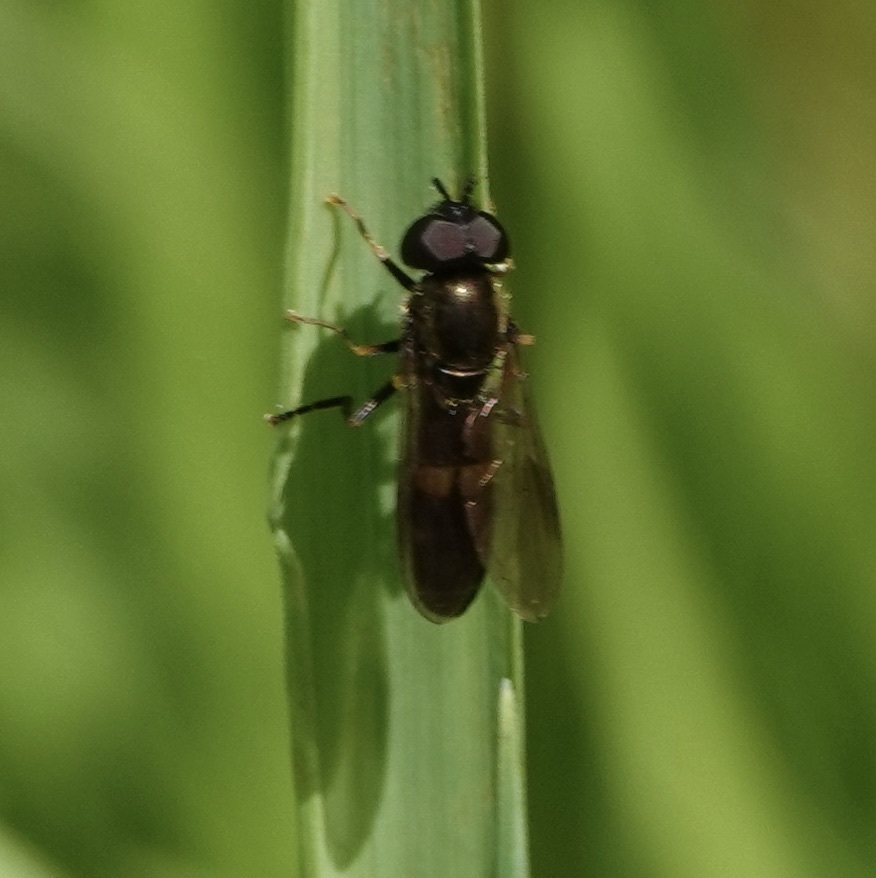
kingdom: Animalia
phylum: Arthropoda
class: Insecta
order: Diptera
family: Syrphidae
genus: Pyrophaena
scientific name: Pyrophaena rosarum
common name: Fourspot sedgesitter
